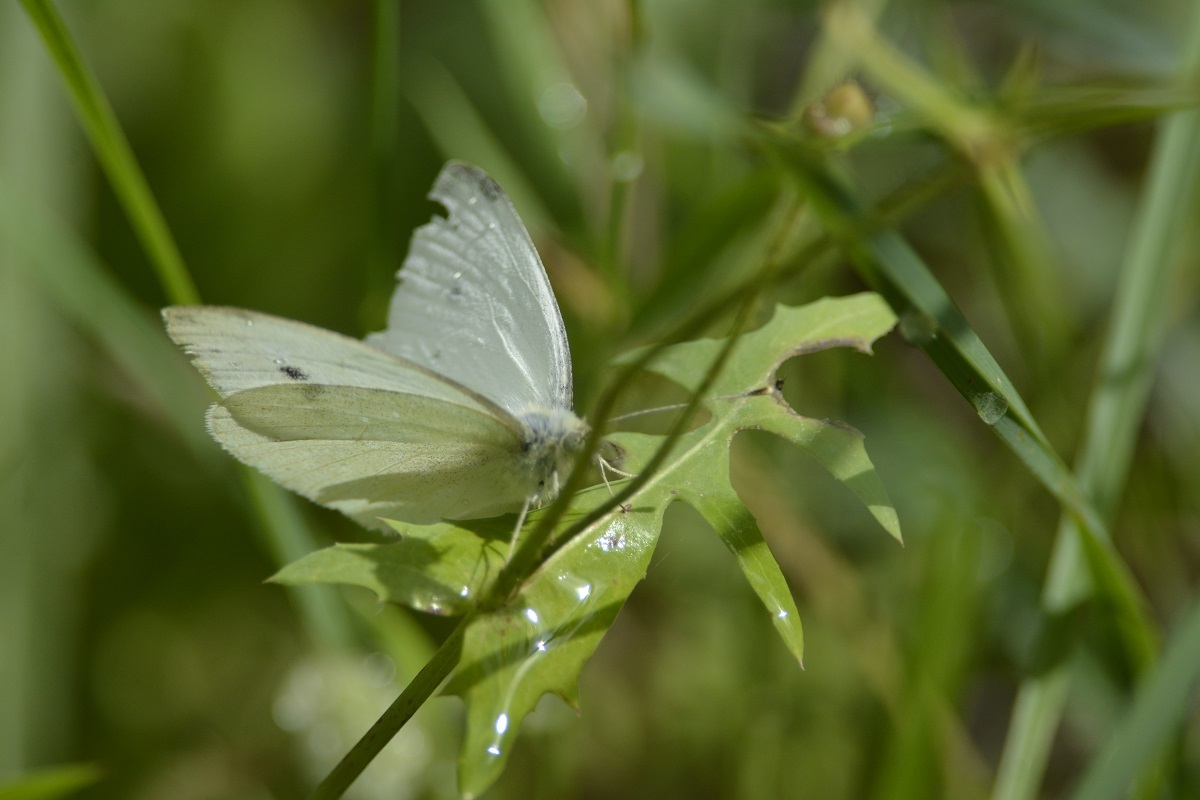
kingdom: Animalia
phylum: Arthropoda
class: Insecta
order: Lepidoptera
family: Pieridae
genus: Pieris
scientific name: Pieris rapae
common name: Small white
